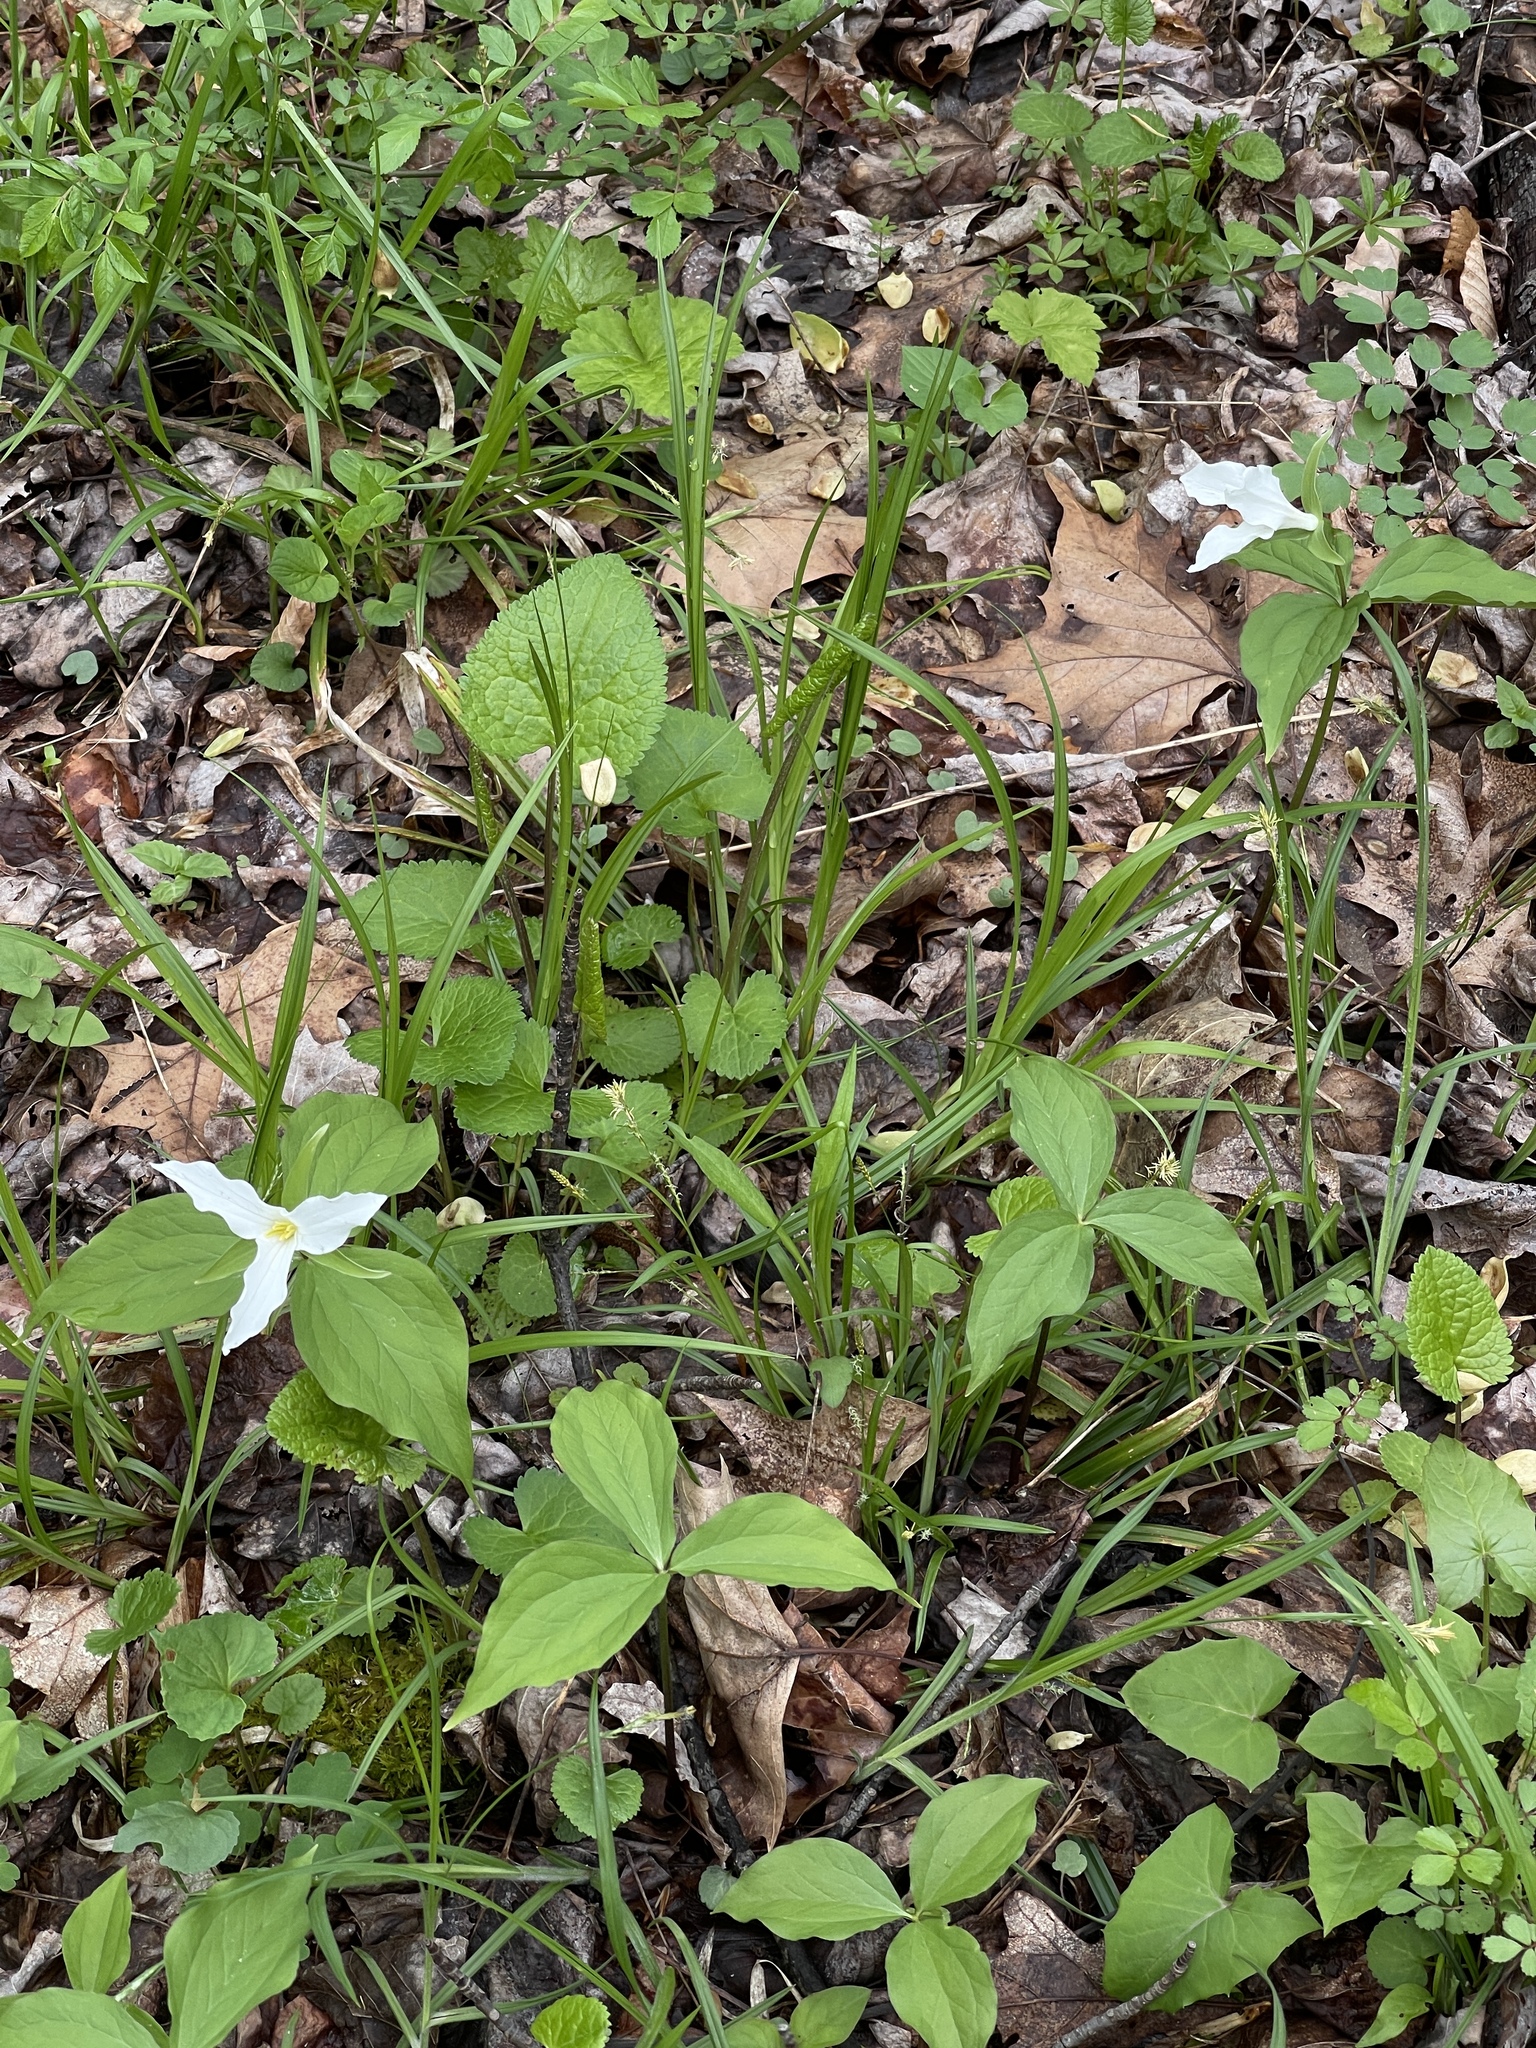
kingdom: Plantae
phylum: Tracheophyta
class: Liliopsida
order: Liliales
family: Melanthiaceae
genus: Trillium
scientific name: Trillium grandiflorum
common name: Great white trillium
